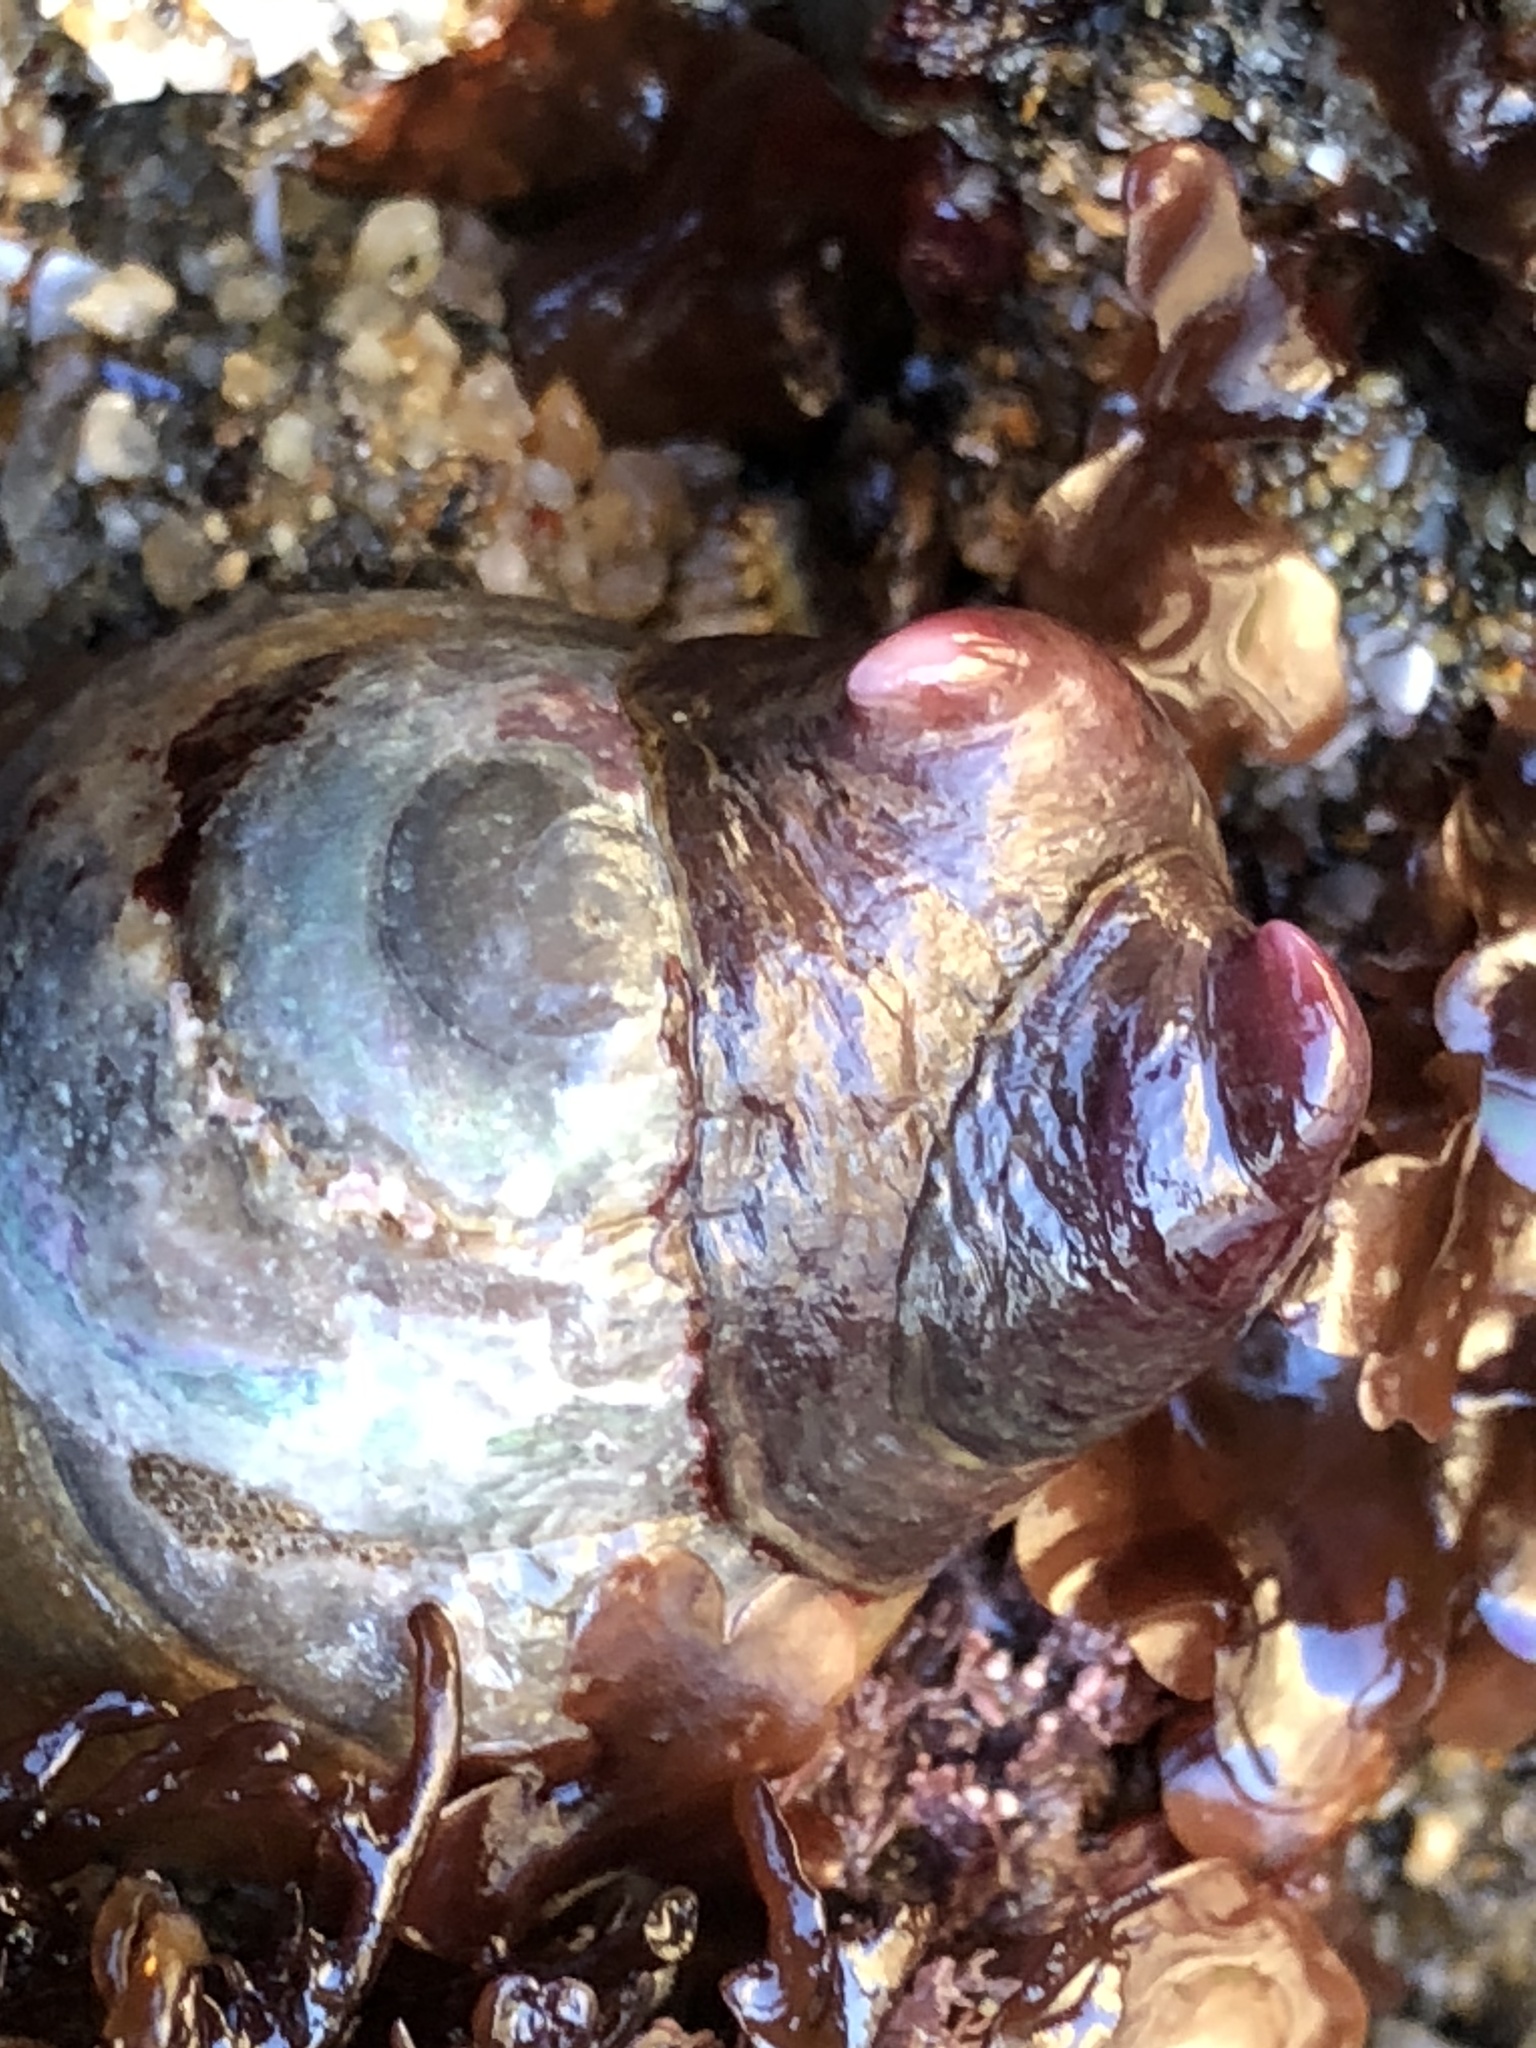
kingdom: Animalia
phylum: Mollusca
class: Gastropoda
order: Littorinimorpha
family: Calyptraeidae
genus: Crepidula
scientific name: Crepidula adunca
